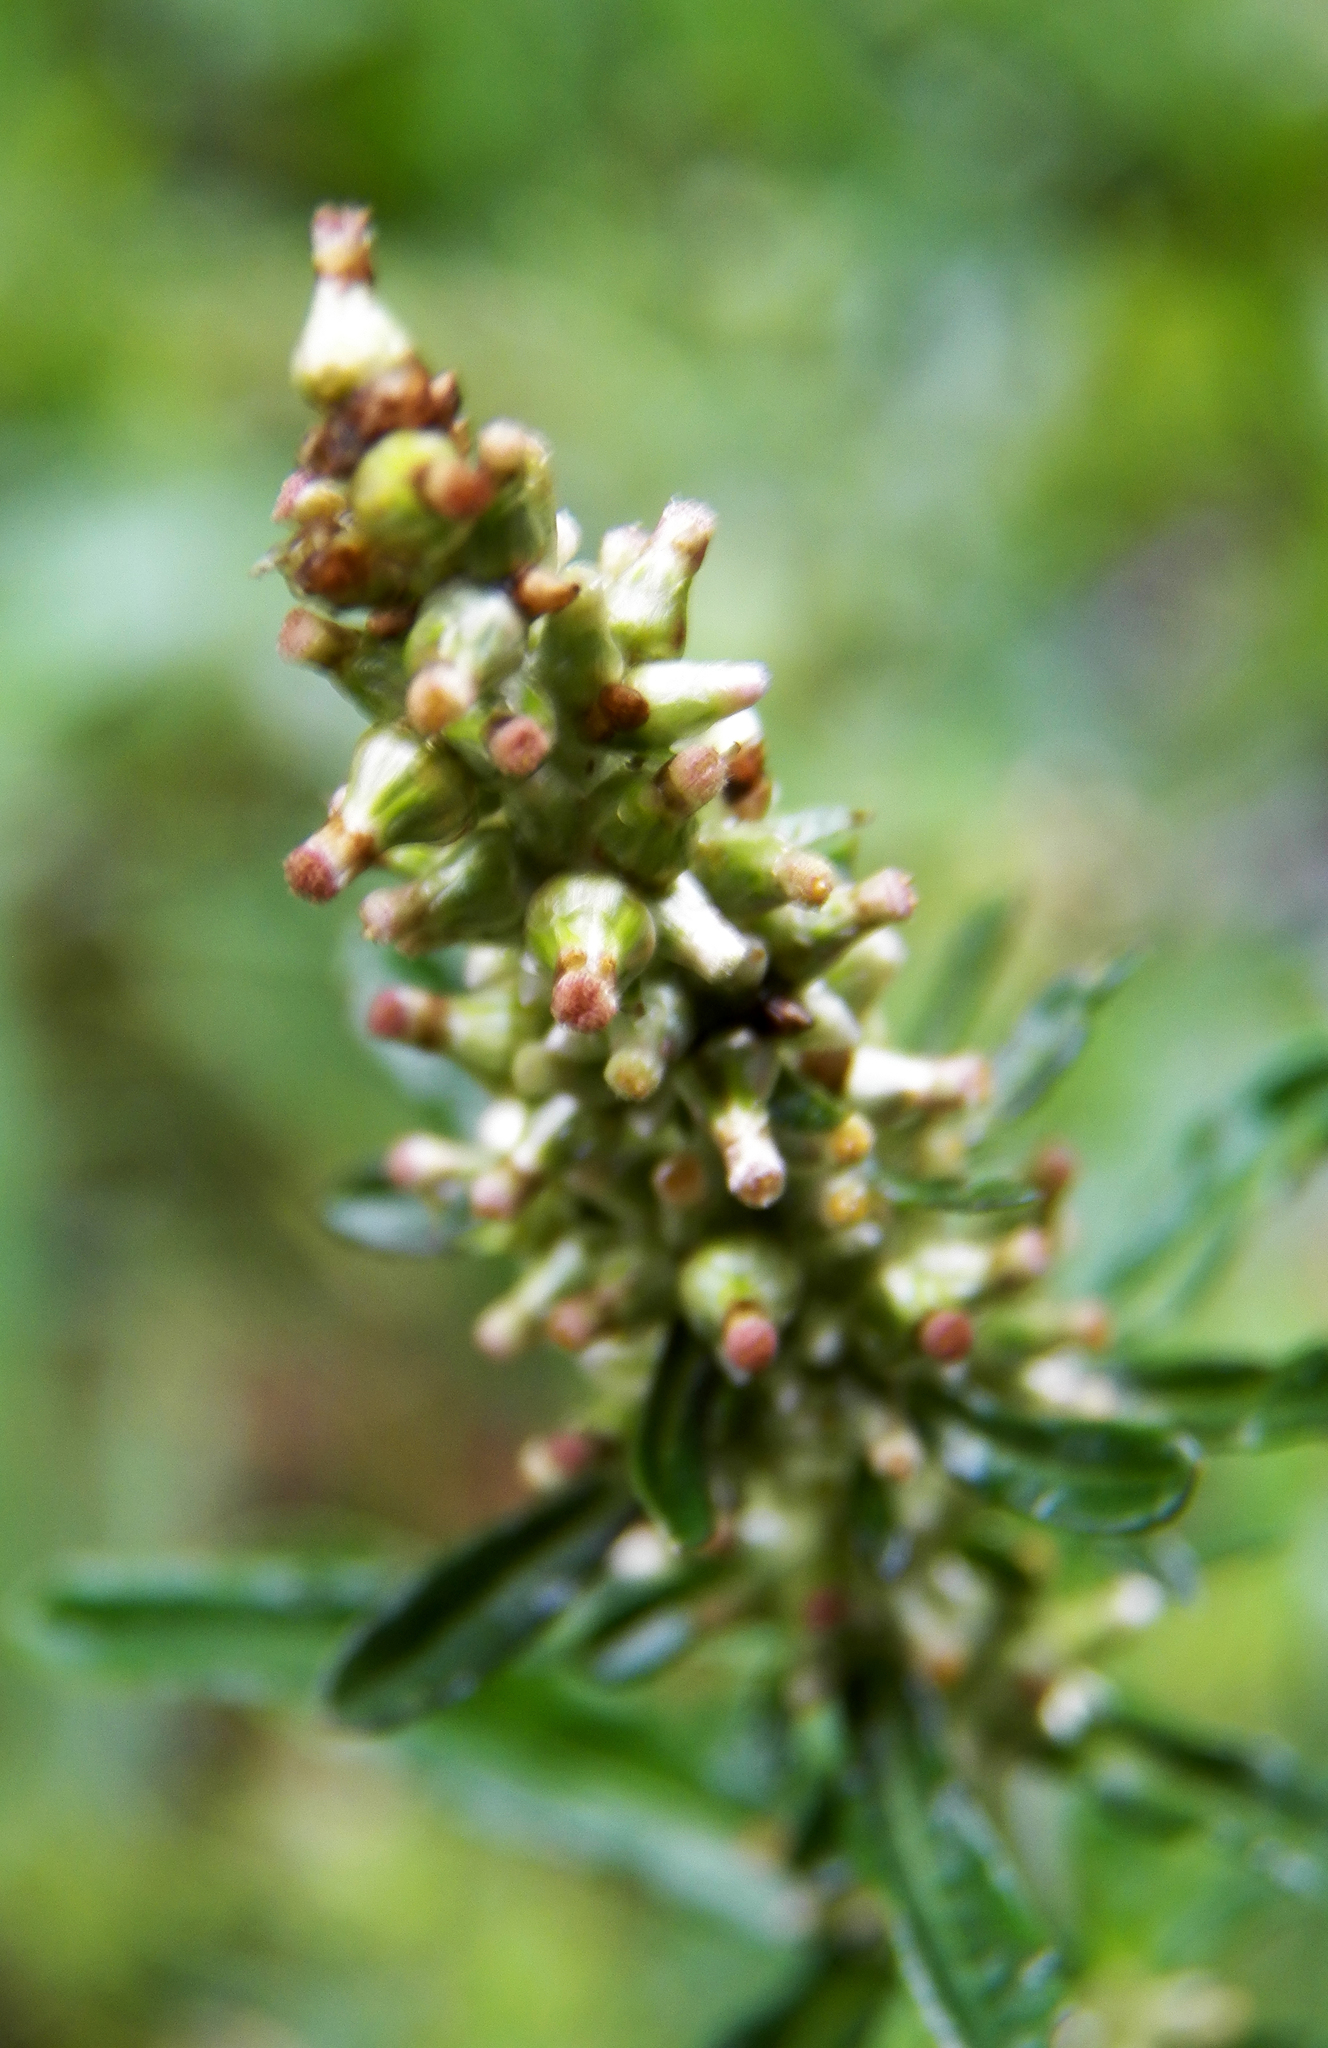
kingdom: Plantae
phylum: Tracheophyta
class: Magnoliopsida
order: Asterales
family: Asteraceae
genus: Gamochaeta
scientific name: Gamochaeta americana
